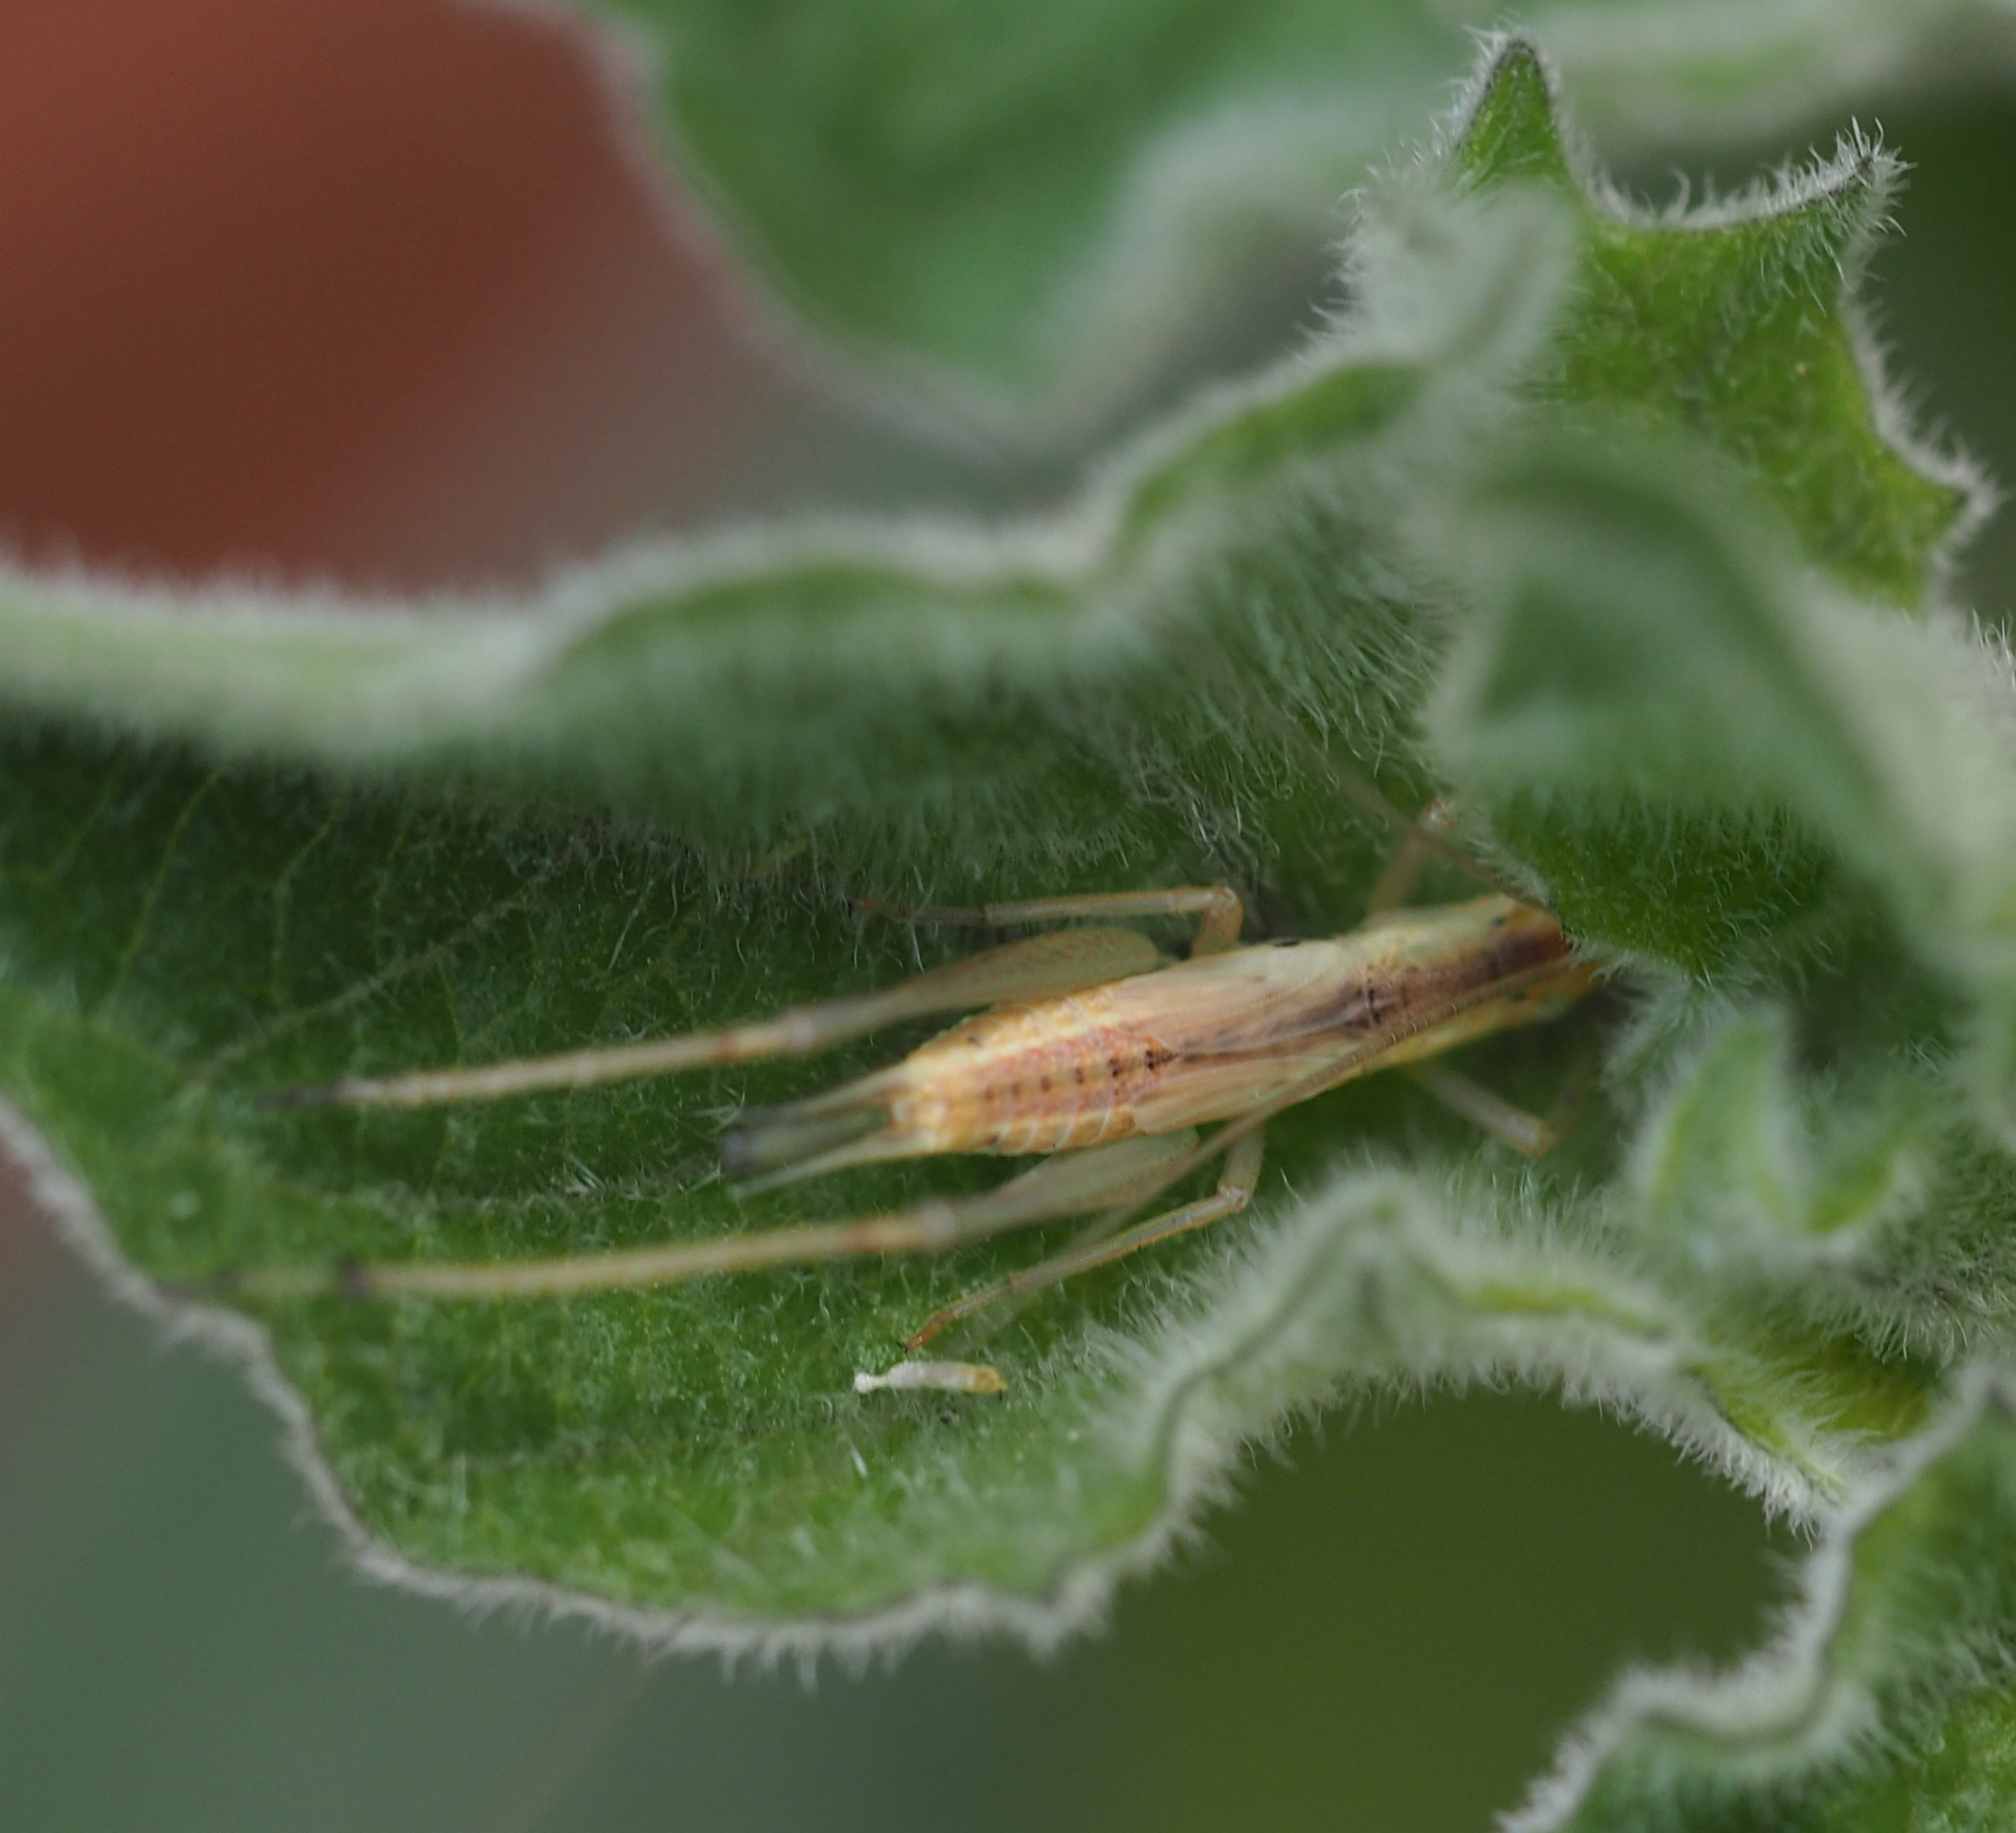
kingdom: Animalia
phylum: Arthropoda
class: Insecta
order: Orthoptera
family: Gryllidae
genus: Oecanthus
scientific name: Oecanthus pellucens
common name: Tree-cricket
